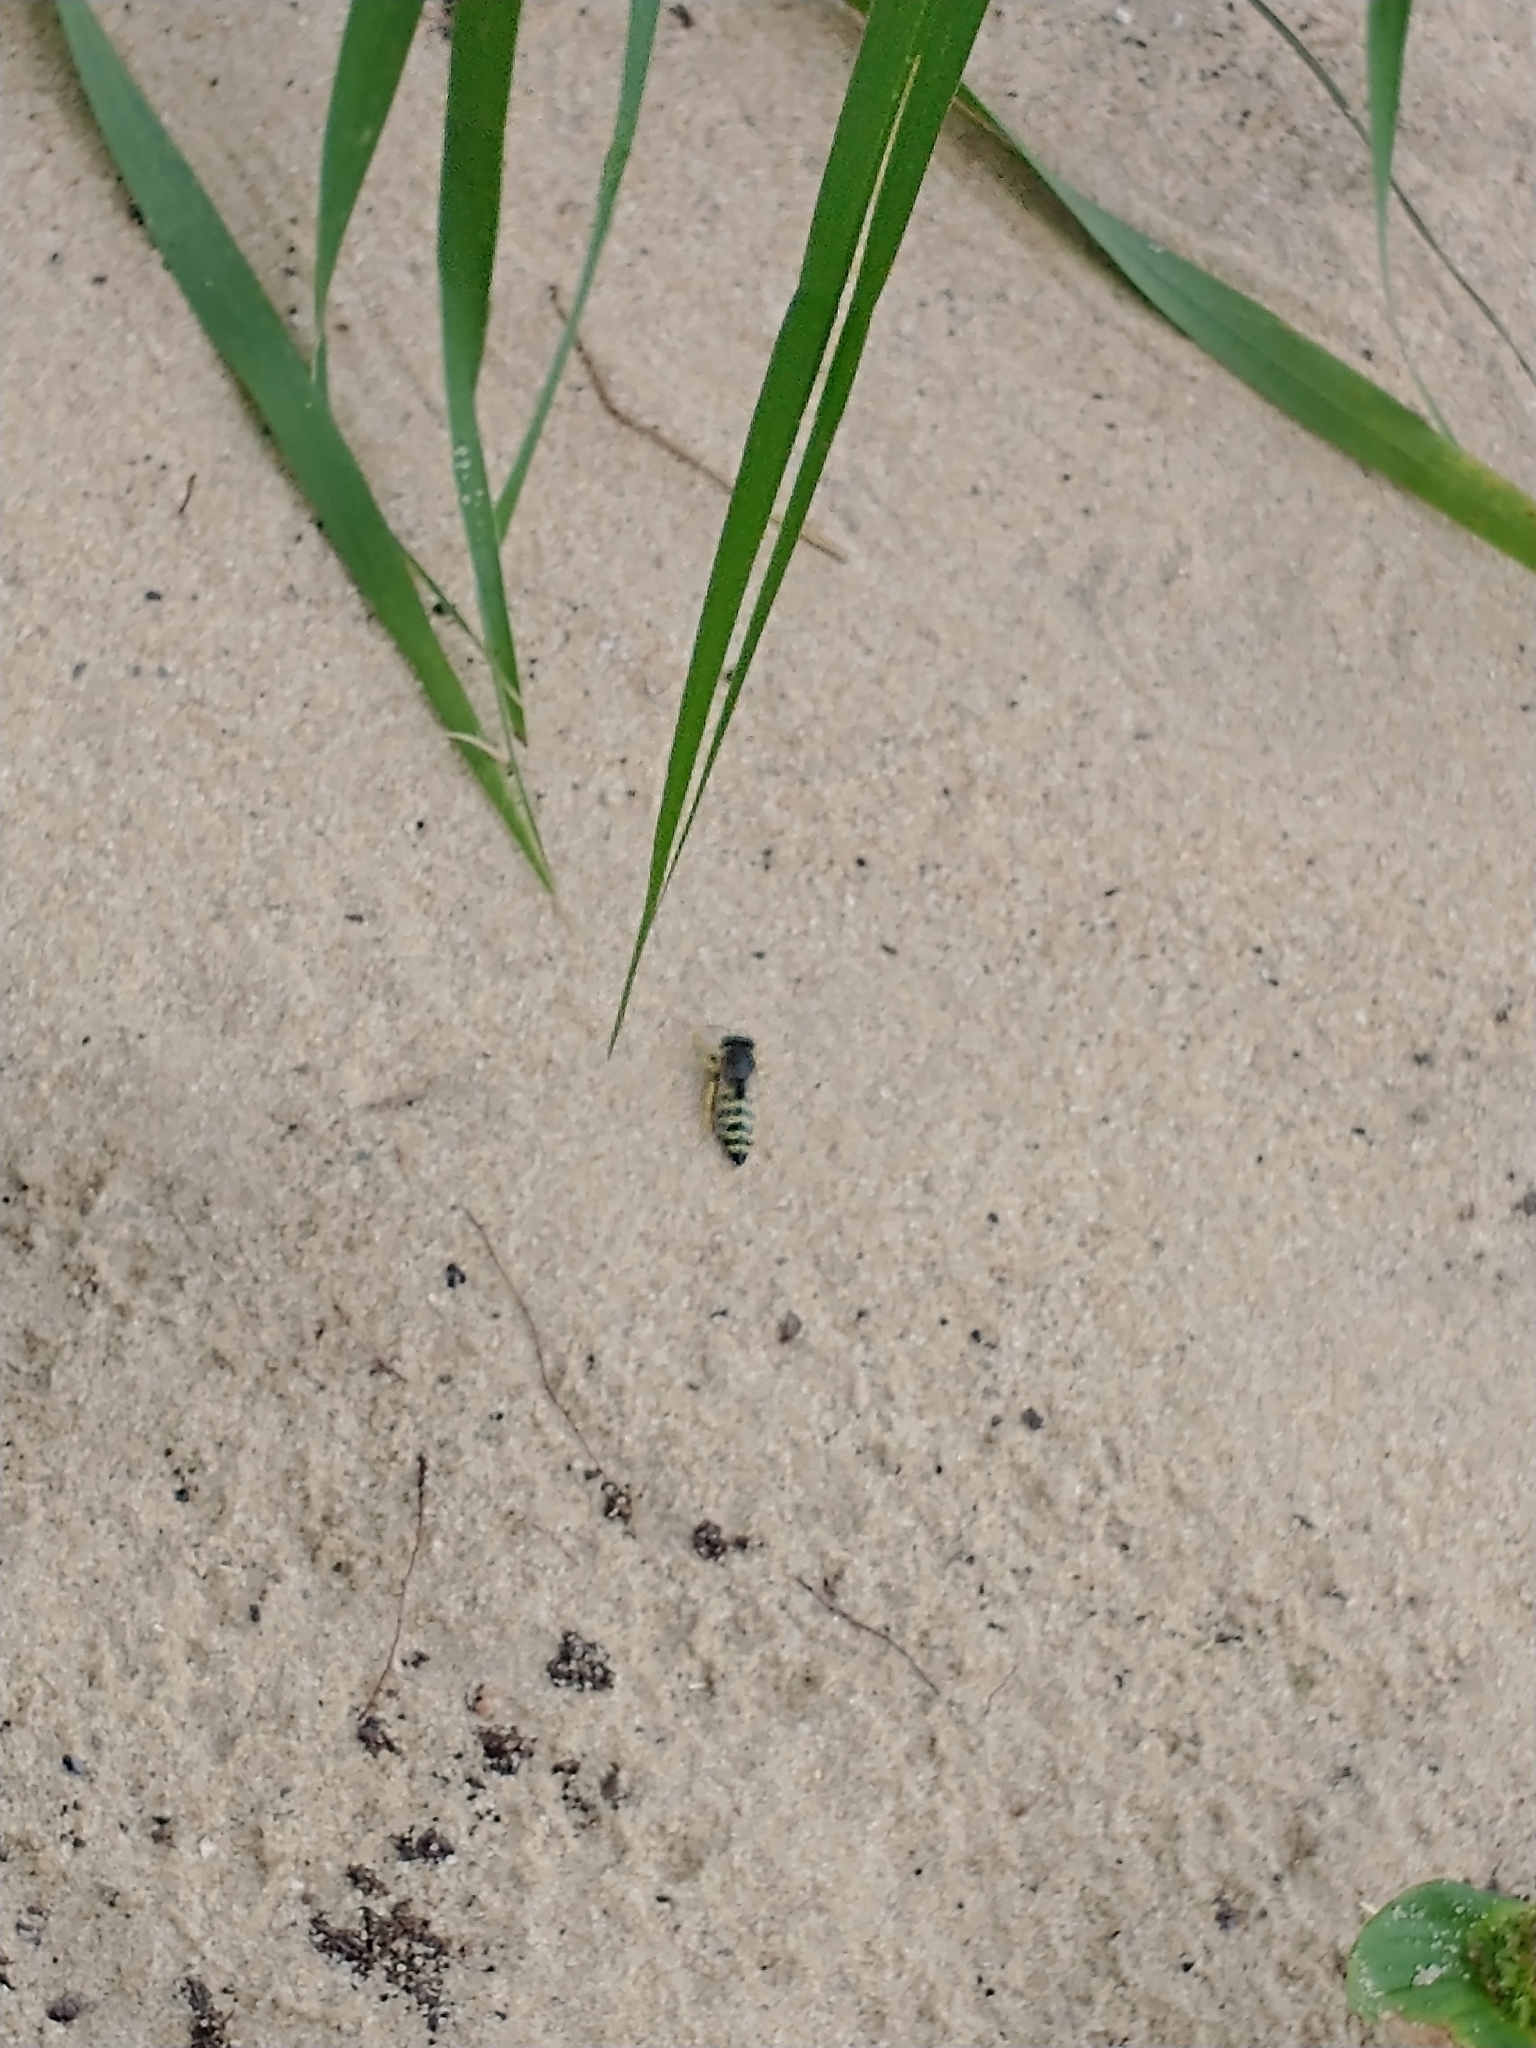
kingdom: Animalia
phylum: Arthropoda
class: Insecta
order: Hymenoptera
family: Crabronidae
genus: Bembix
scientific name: Bembix americana
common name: American sand wasp
